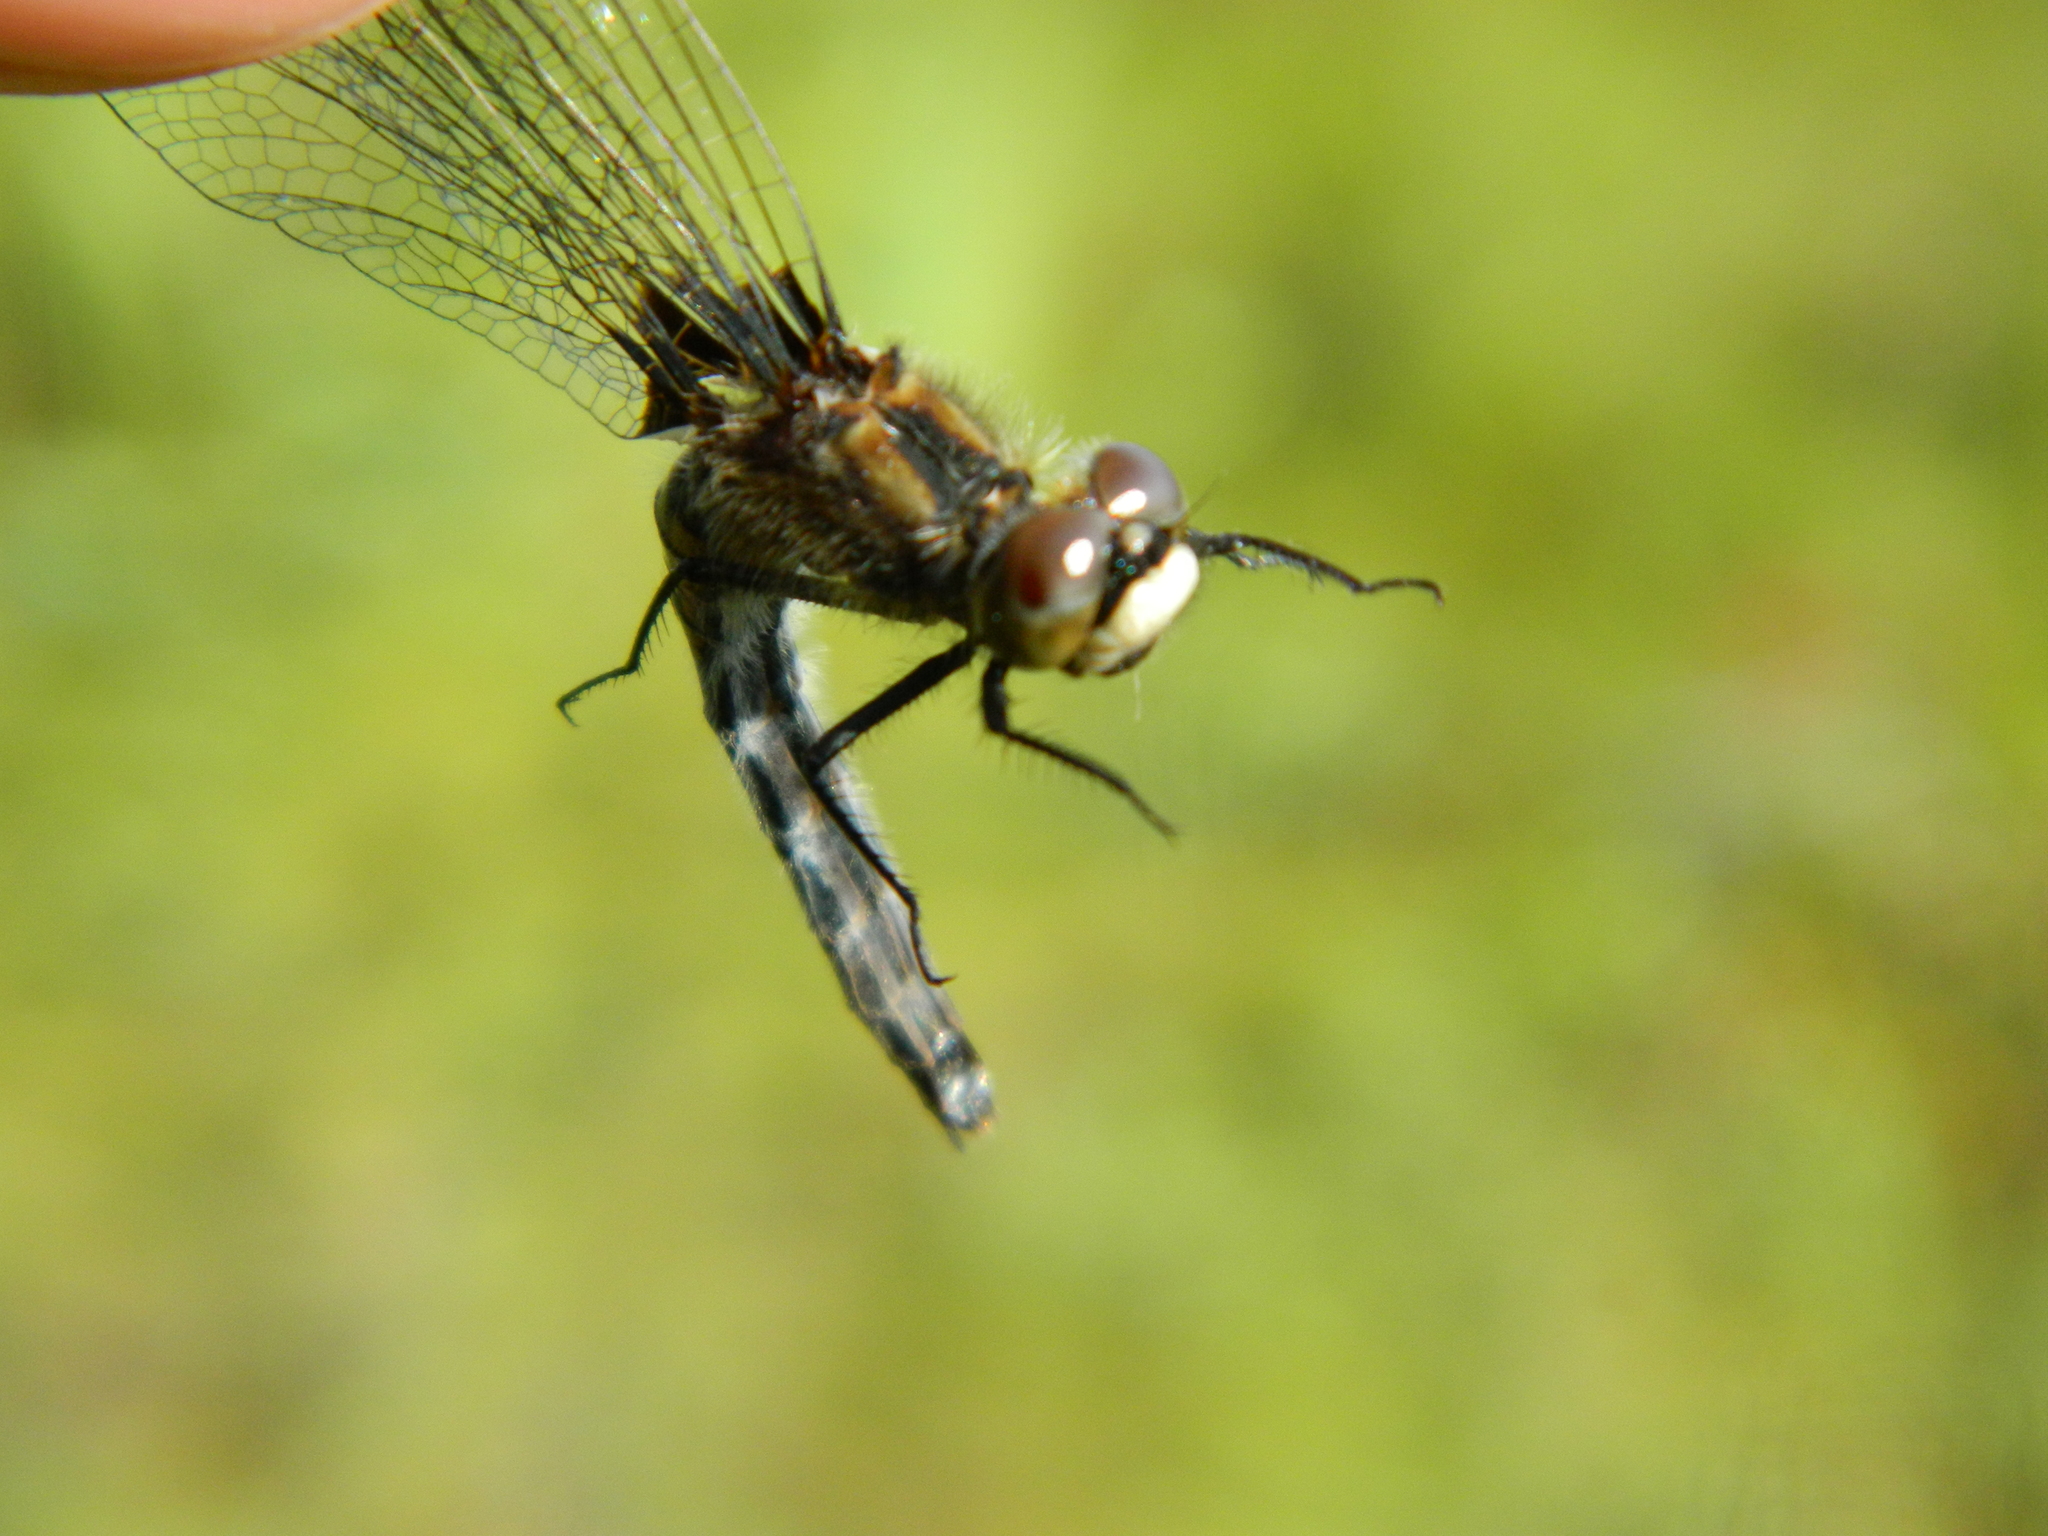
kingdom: Animalia
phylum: Arthropoda
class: Insecta
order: Odonata
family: Libellulidae
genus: Leucorrhinia
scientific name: Leucorrhinia hudsonica
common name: Hudsonian whiteface
